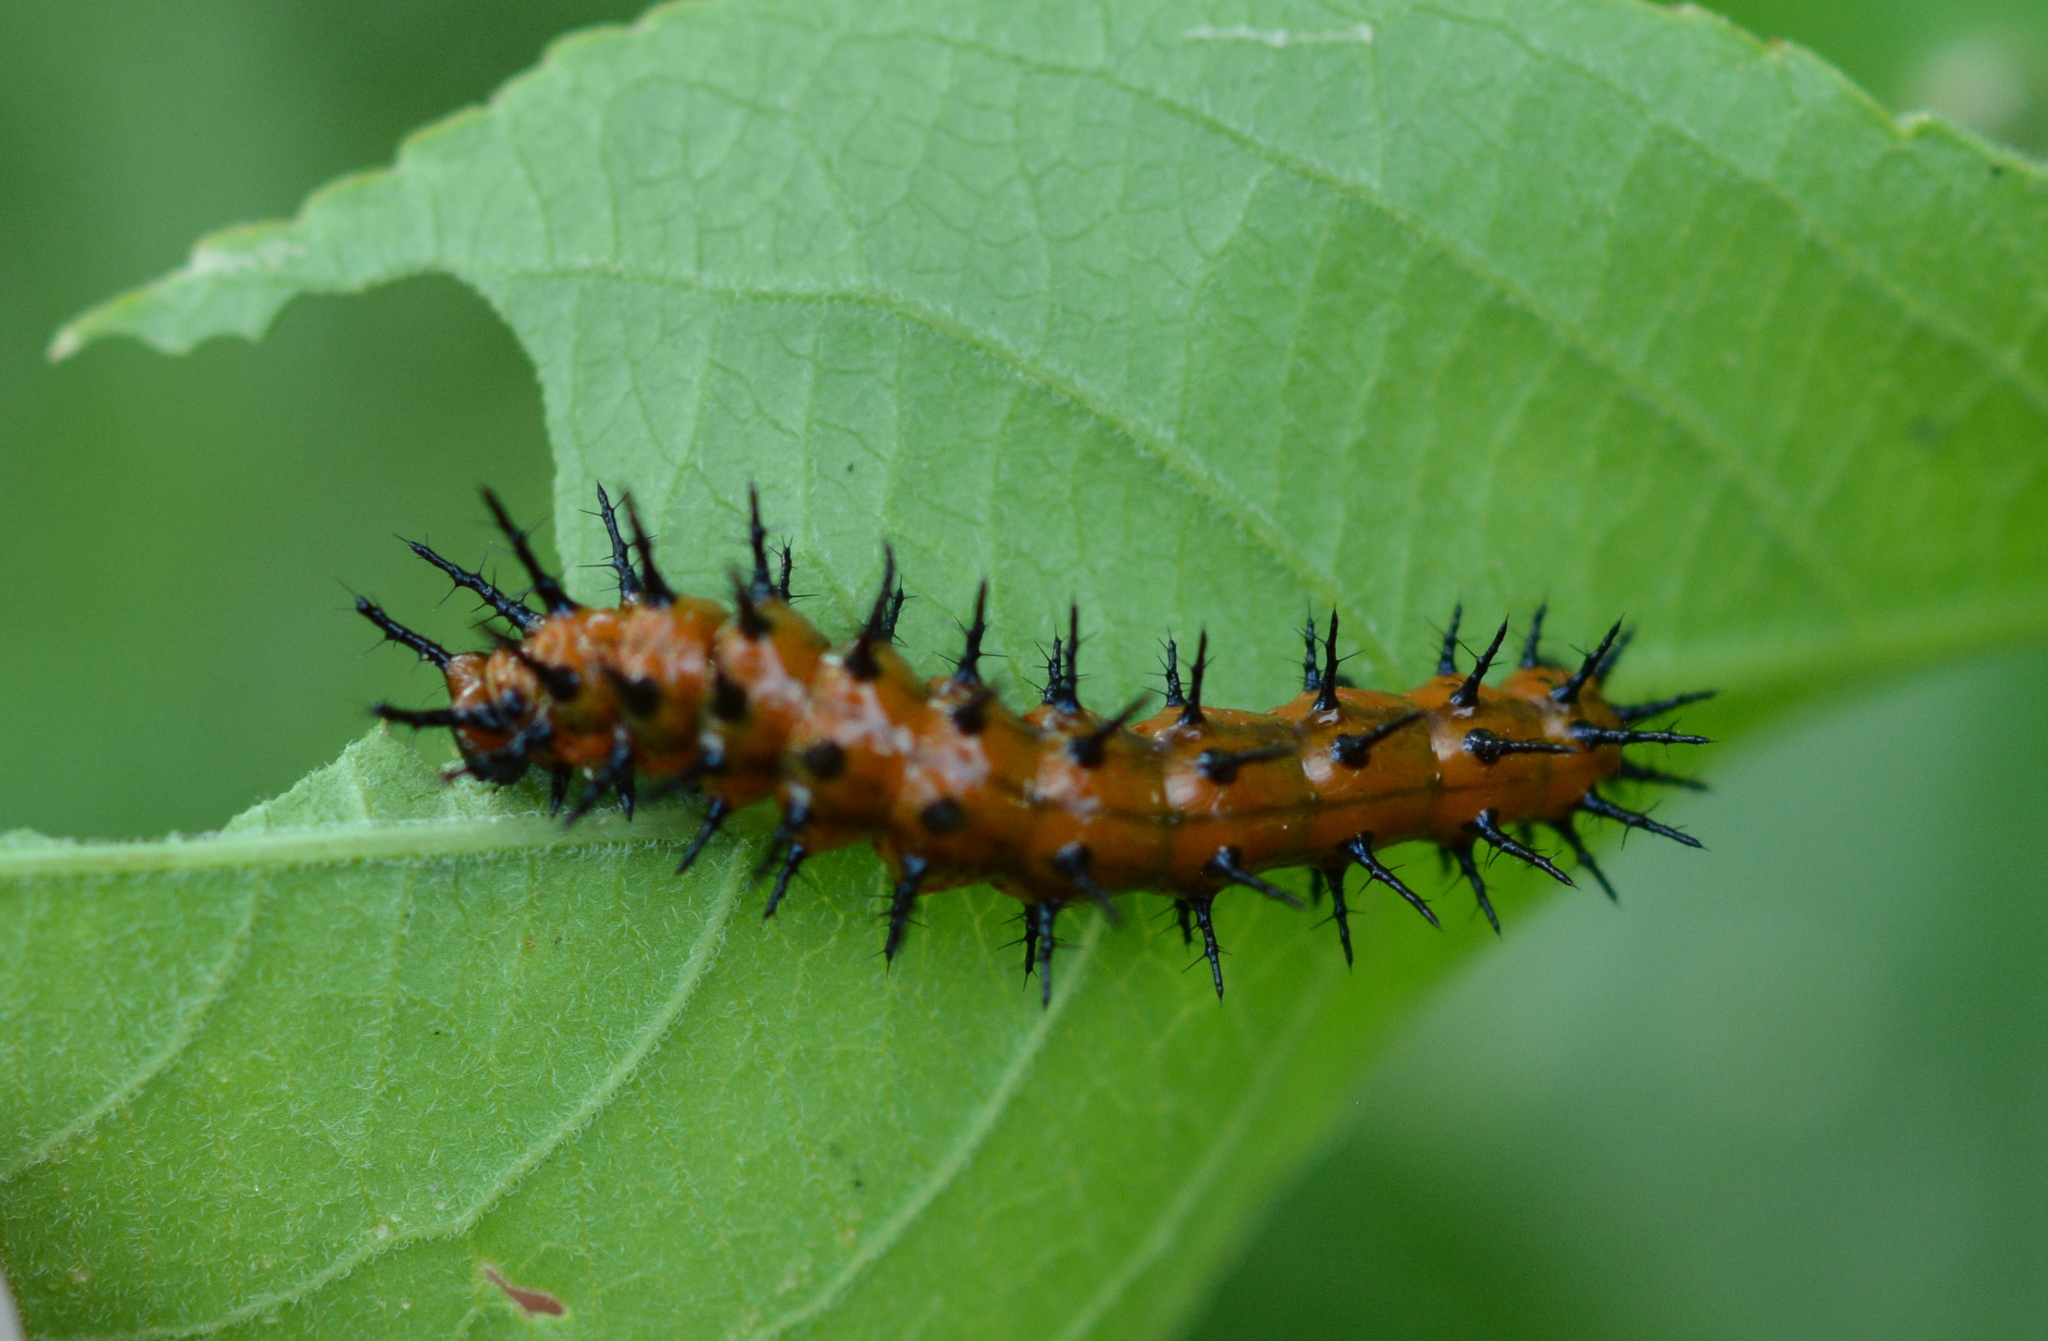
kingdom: Animalia
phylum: Arthropoda
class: Insecta
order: Lepidoptera
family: Nymphalidae
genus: Dione
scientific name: Dione vanillae
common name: Gulf fritillary
